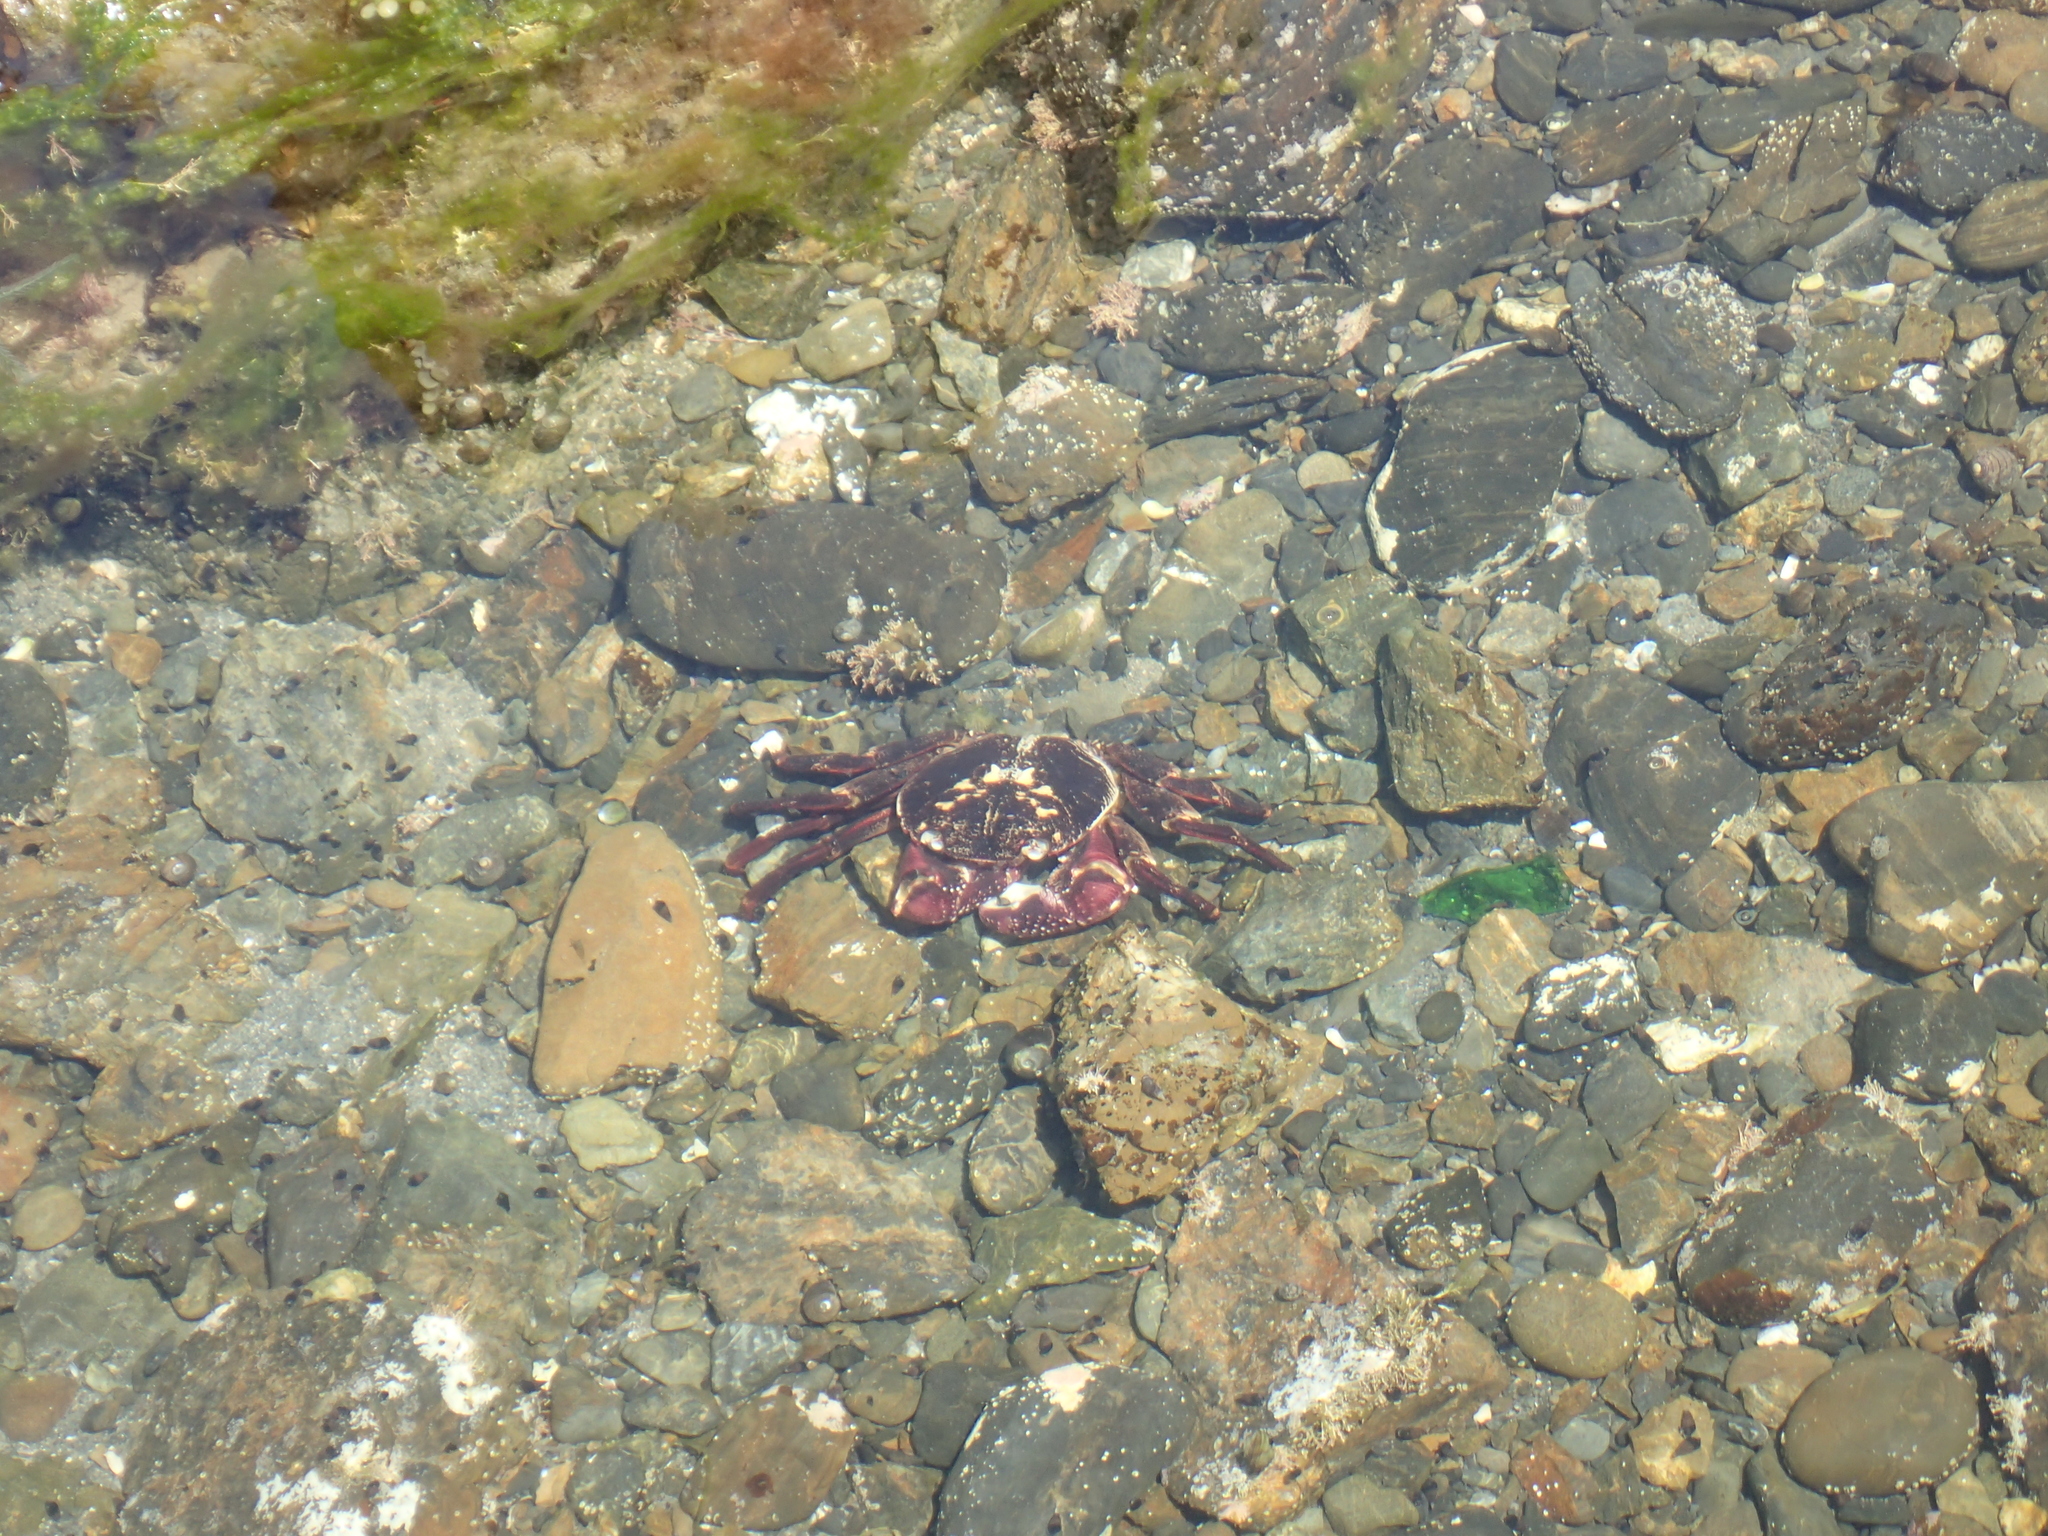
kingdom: Animalia
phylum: Arthropoda
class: Malacostraca
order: Decapoda
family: Grapsidae
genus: Leptograpsus
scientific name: Leptograpsus variegatus
